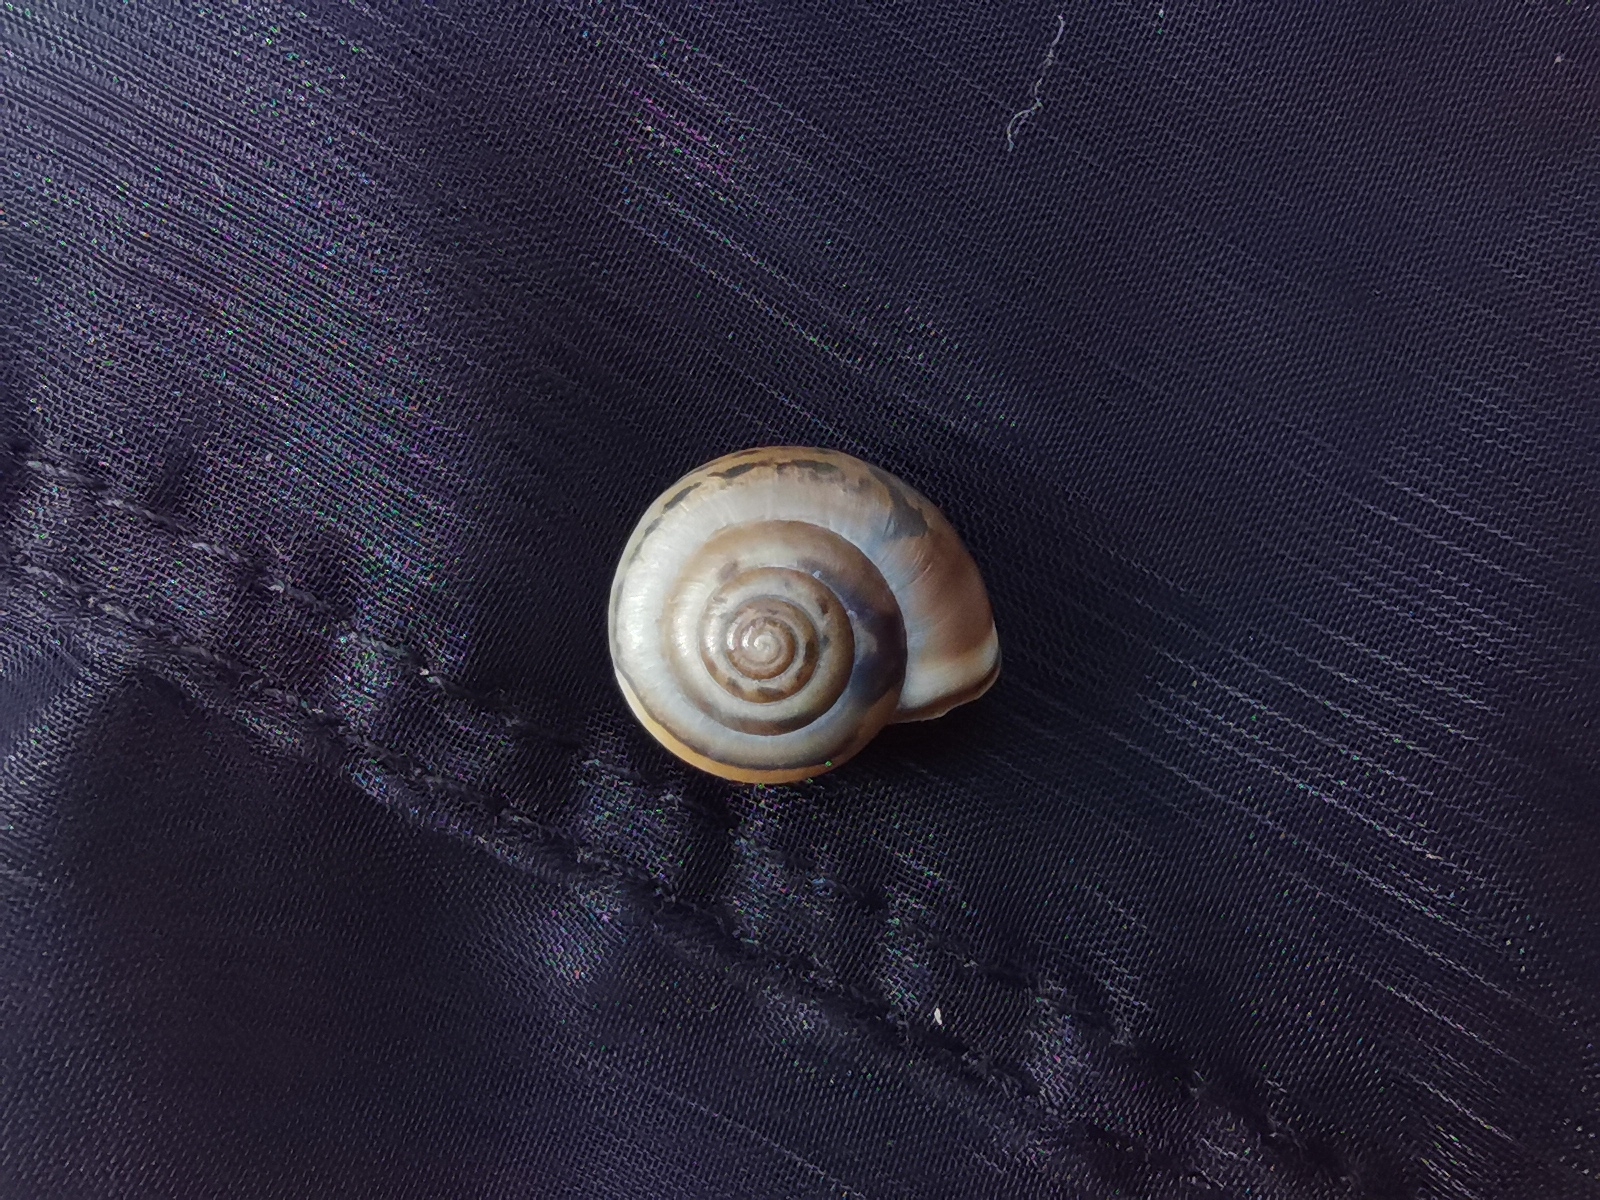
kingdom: Animalia
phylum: Mollusca
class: Gastropoda
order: Stylommatophora
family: Hygromiidae
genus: Monacha
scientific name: Monacha cartusiana
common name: Carthusian snail
